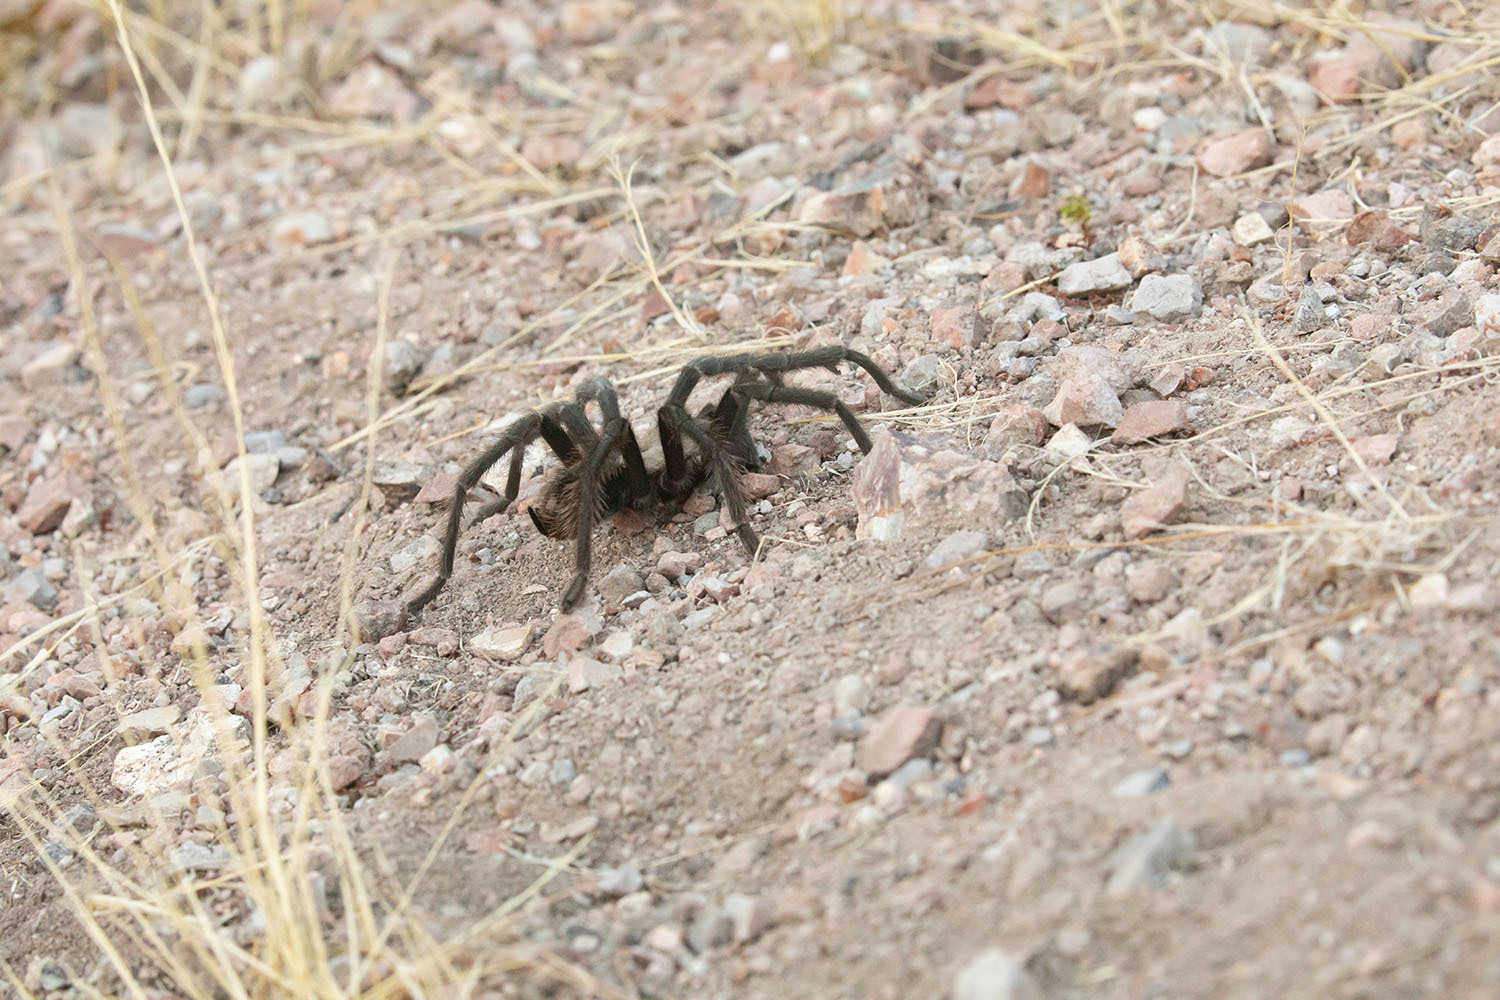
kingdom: Animalia
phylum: Arthropoda
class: Arachnida
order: Araneae
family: Theraphosidae
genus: Aphonopelma
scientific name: Aphonopelma iodius
